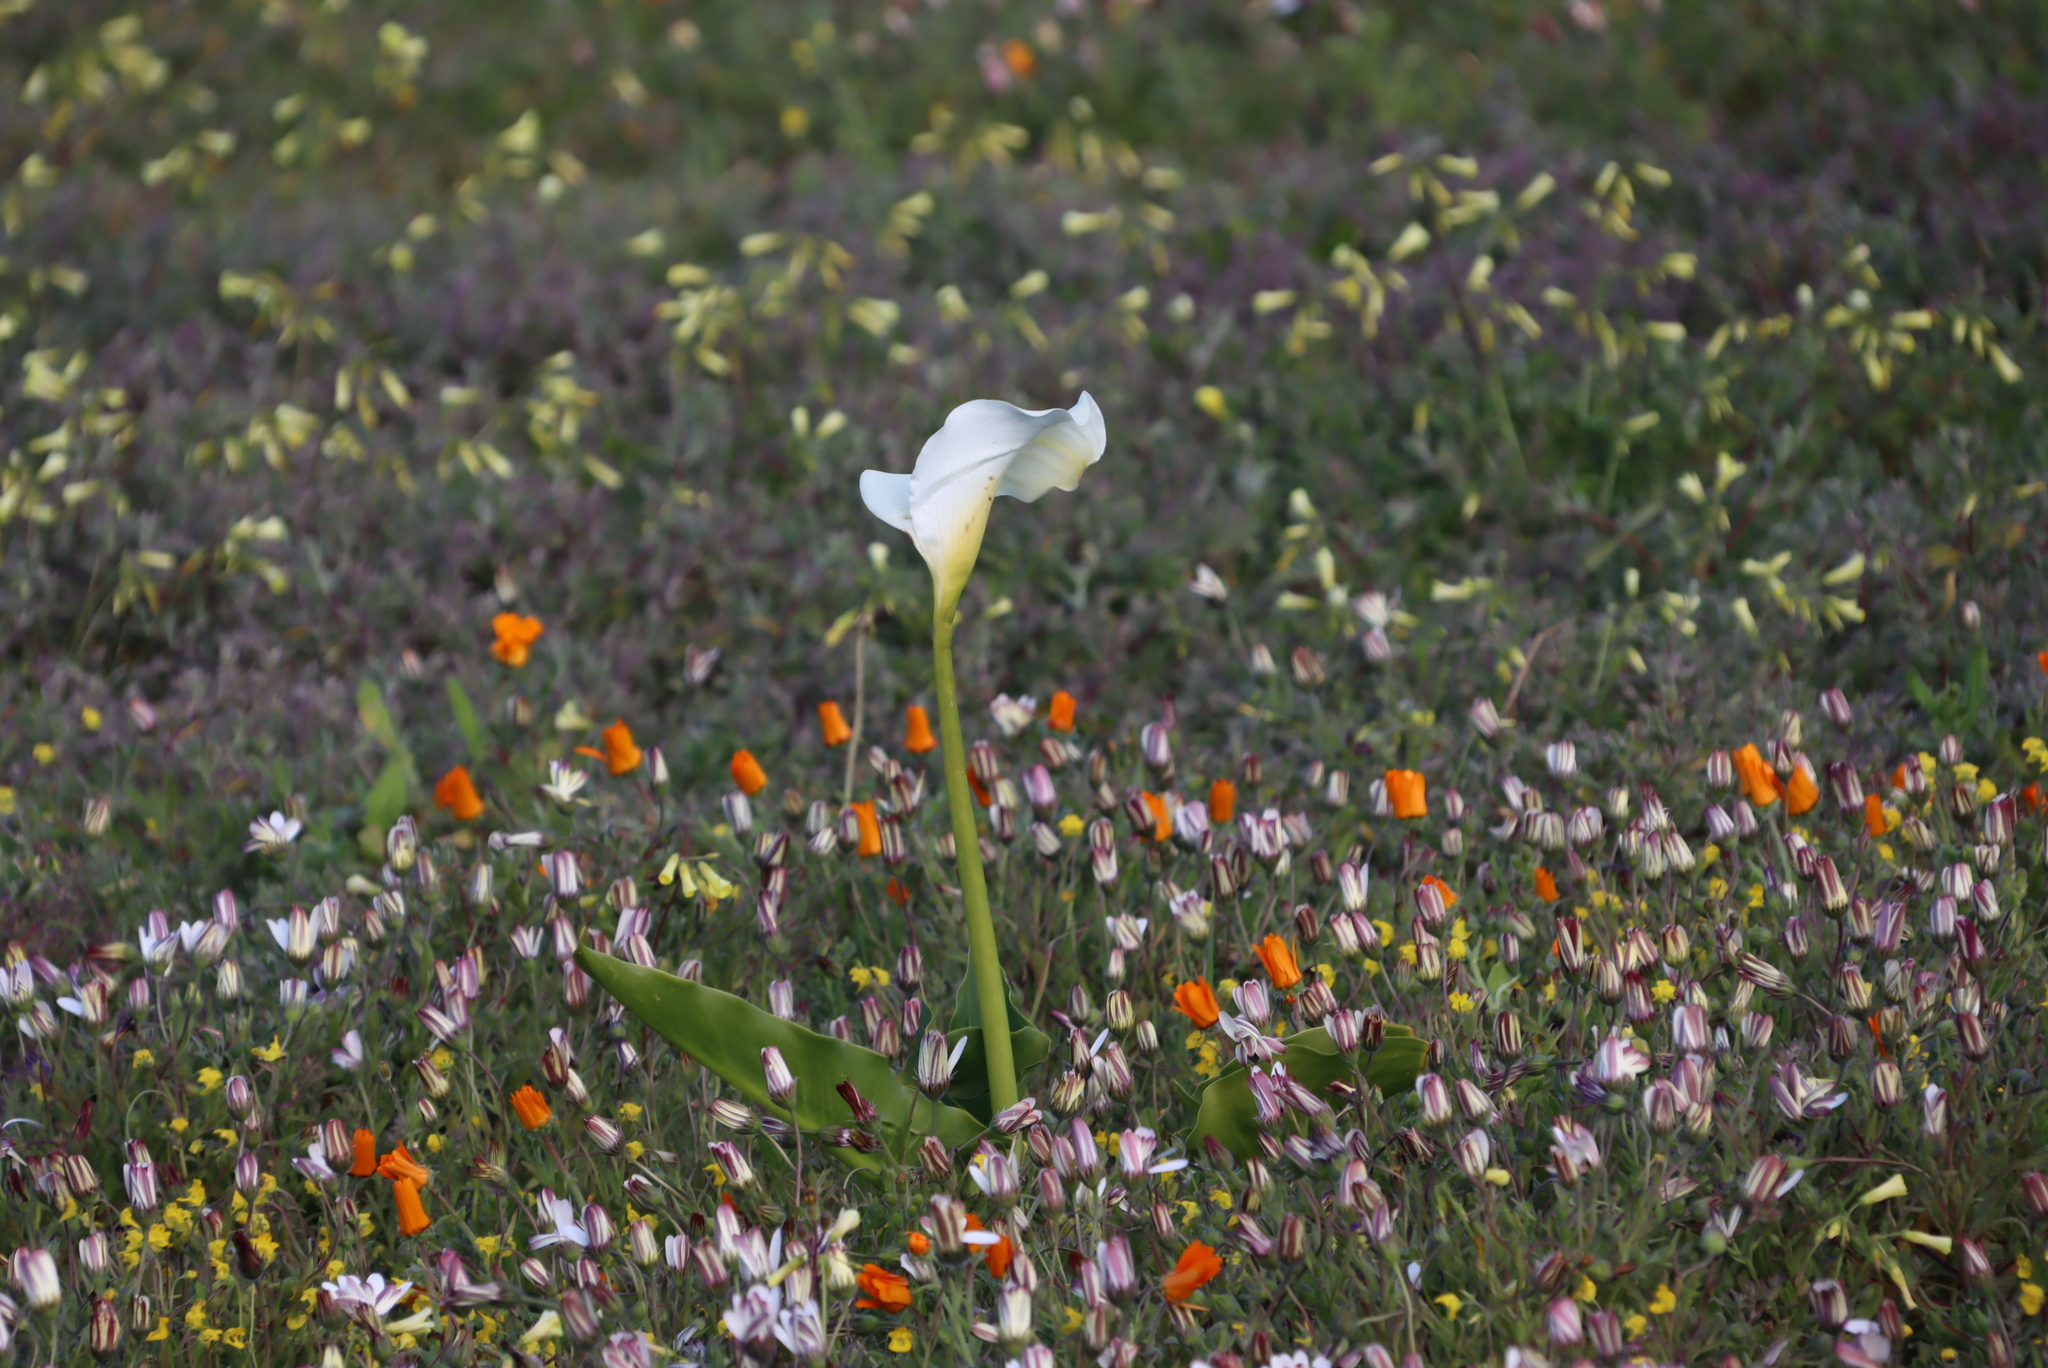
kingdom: Plantae
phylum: Tracheophyta
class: Liliopsida
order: Alismatales
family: Araceae
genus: Zantedeschia
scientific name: Zantedeschia aethiopica
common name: Altar-lily
